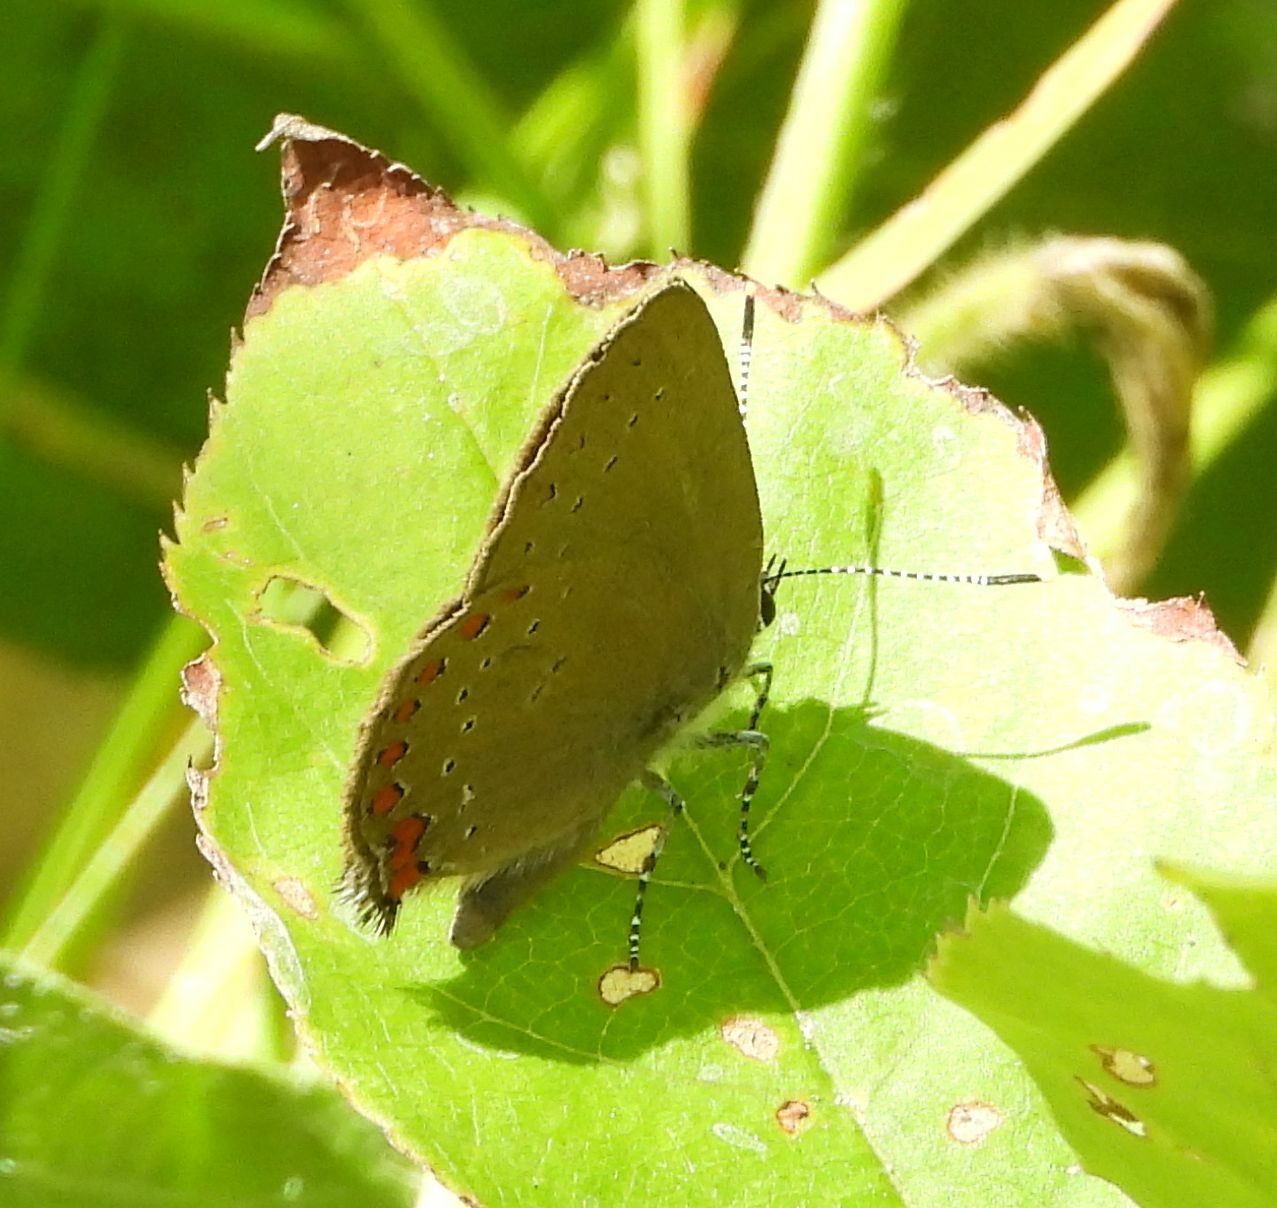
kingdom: Animalia
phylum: Arthropoda
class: Insecta
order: Lepidoptera
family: Lycaenidae
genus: Harkenclenus
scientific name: Harkenclenus titus
